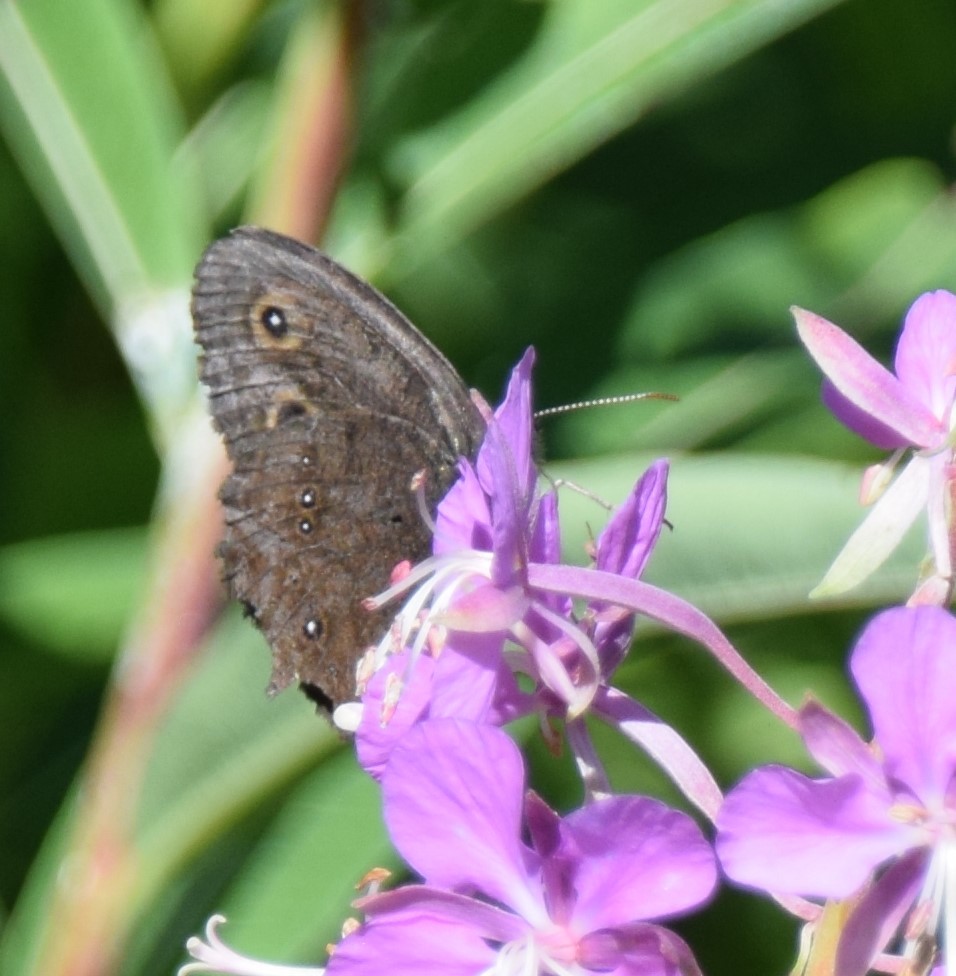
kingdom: Animalia
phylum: Arthropoda
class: Insecta
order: Lepidoptera
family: Nymphalidae
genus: Cercyonis
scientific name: Cercyonis pegala
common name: Common wood-nymph
